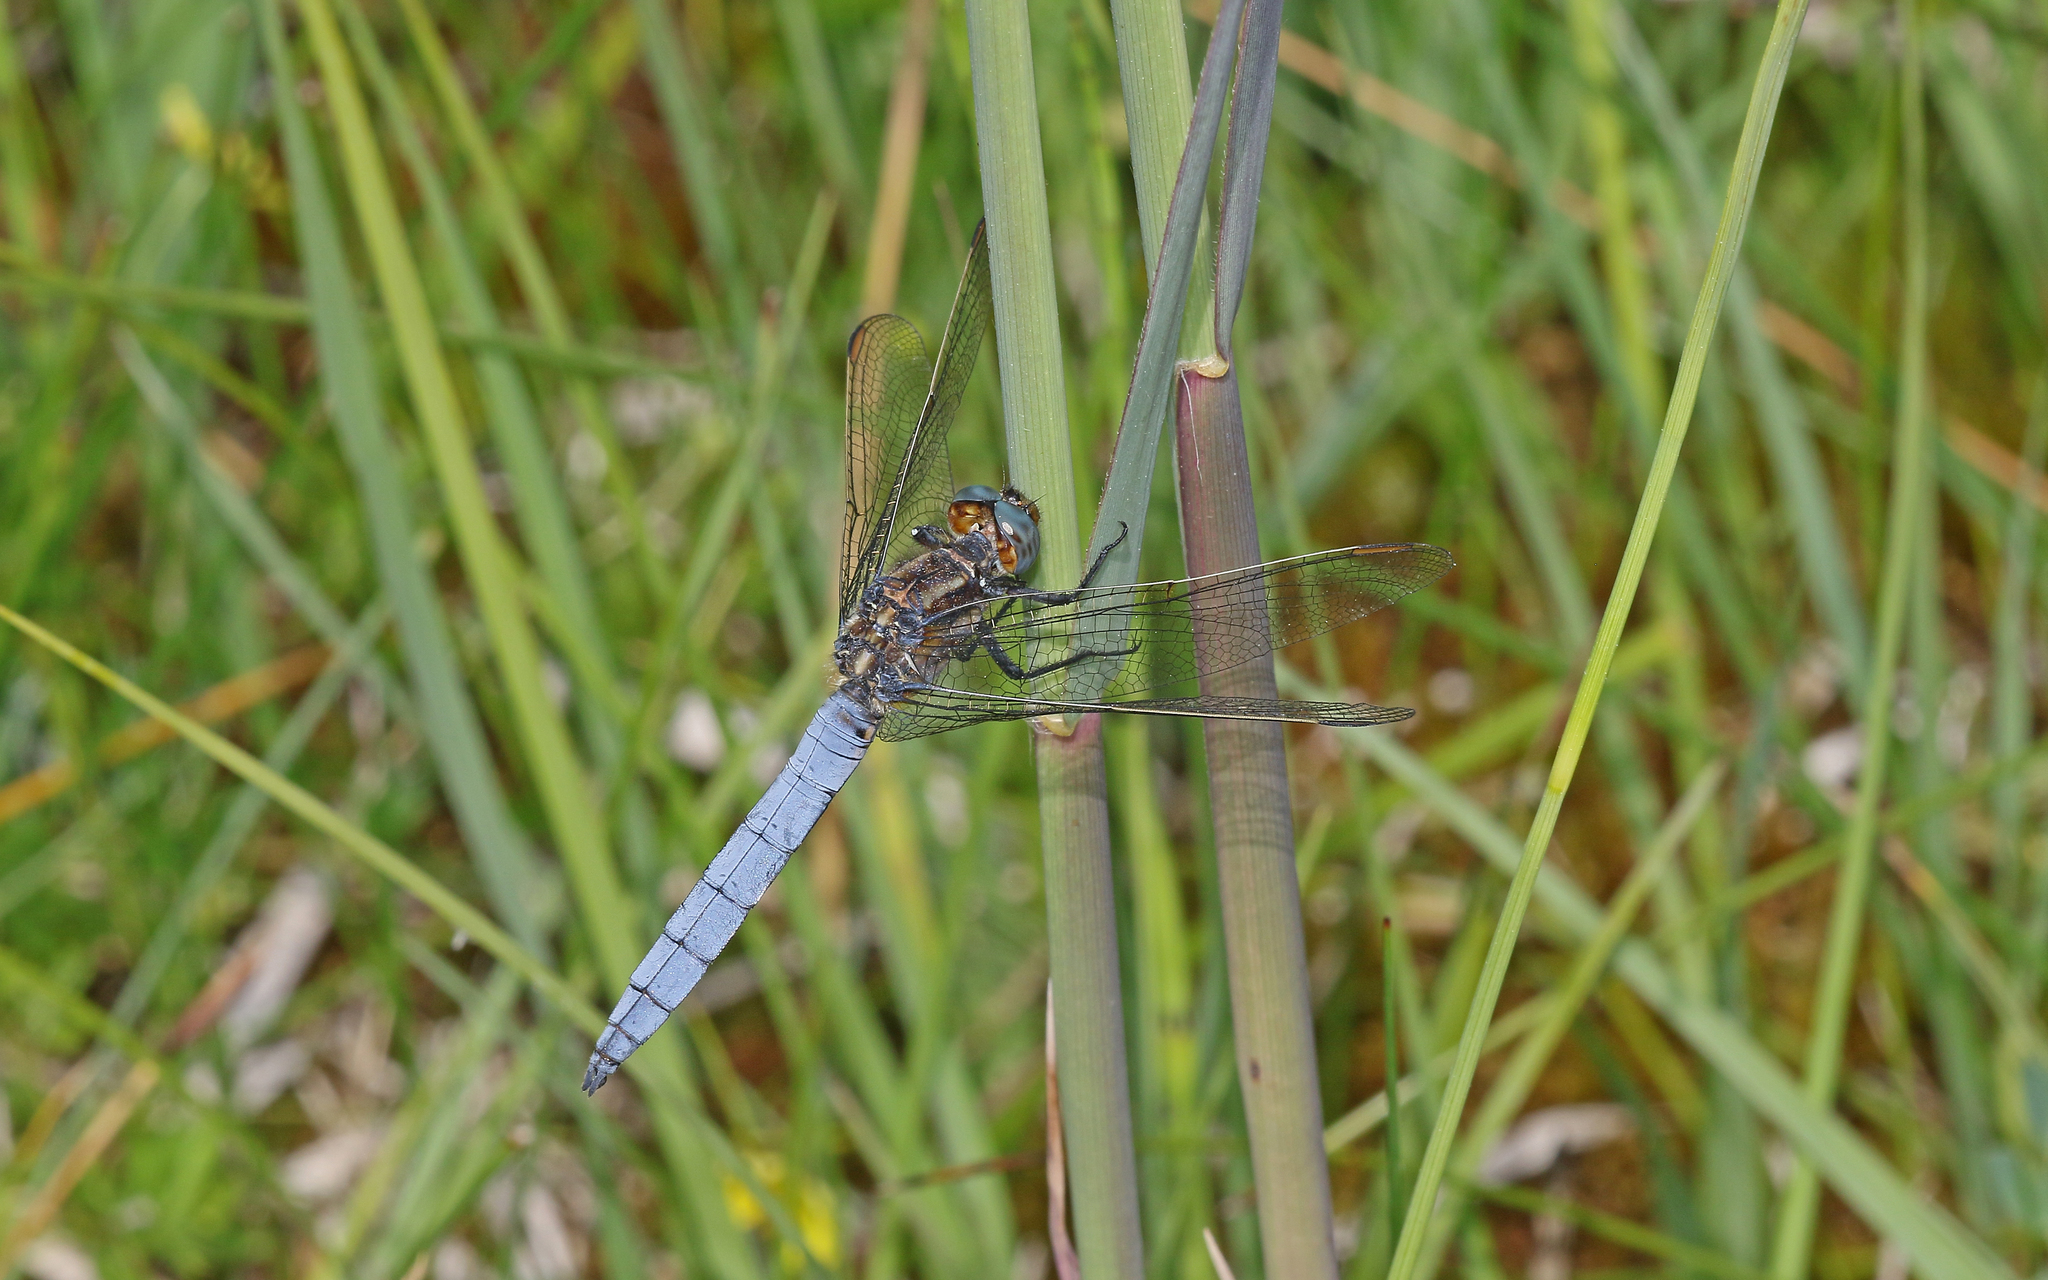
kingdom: Animalia
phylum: Arthropoda
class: Insecta
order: Odonata
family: Libellulidae
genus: Orthetrum
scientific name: Orthetrum coerulescens
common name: Keeled skimmer
